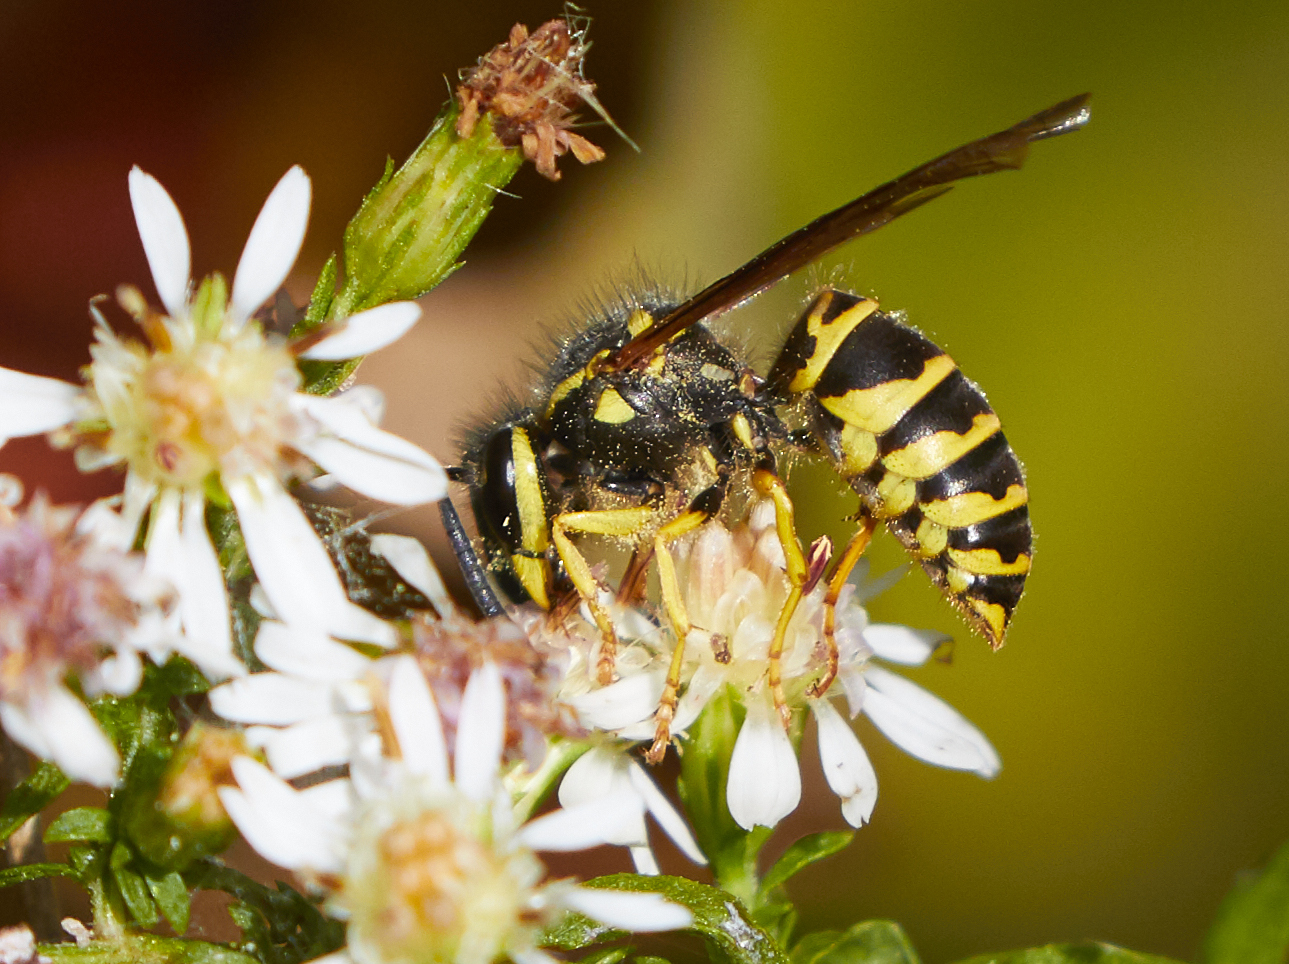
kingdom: Animalia
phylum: Arthropoda
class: Insecta
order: Hymenoptera
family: Vespidae
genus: Vespula
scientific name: Vespula maculifrons
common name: Eastern yellowjacket
